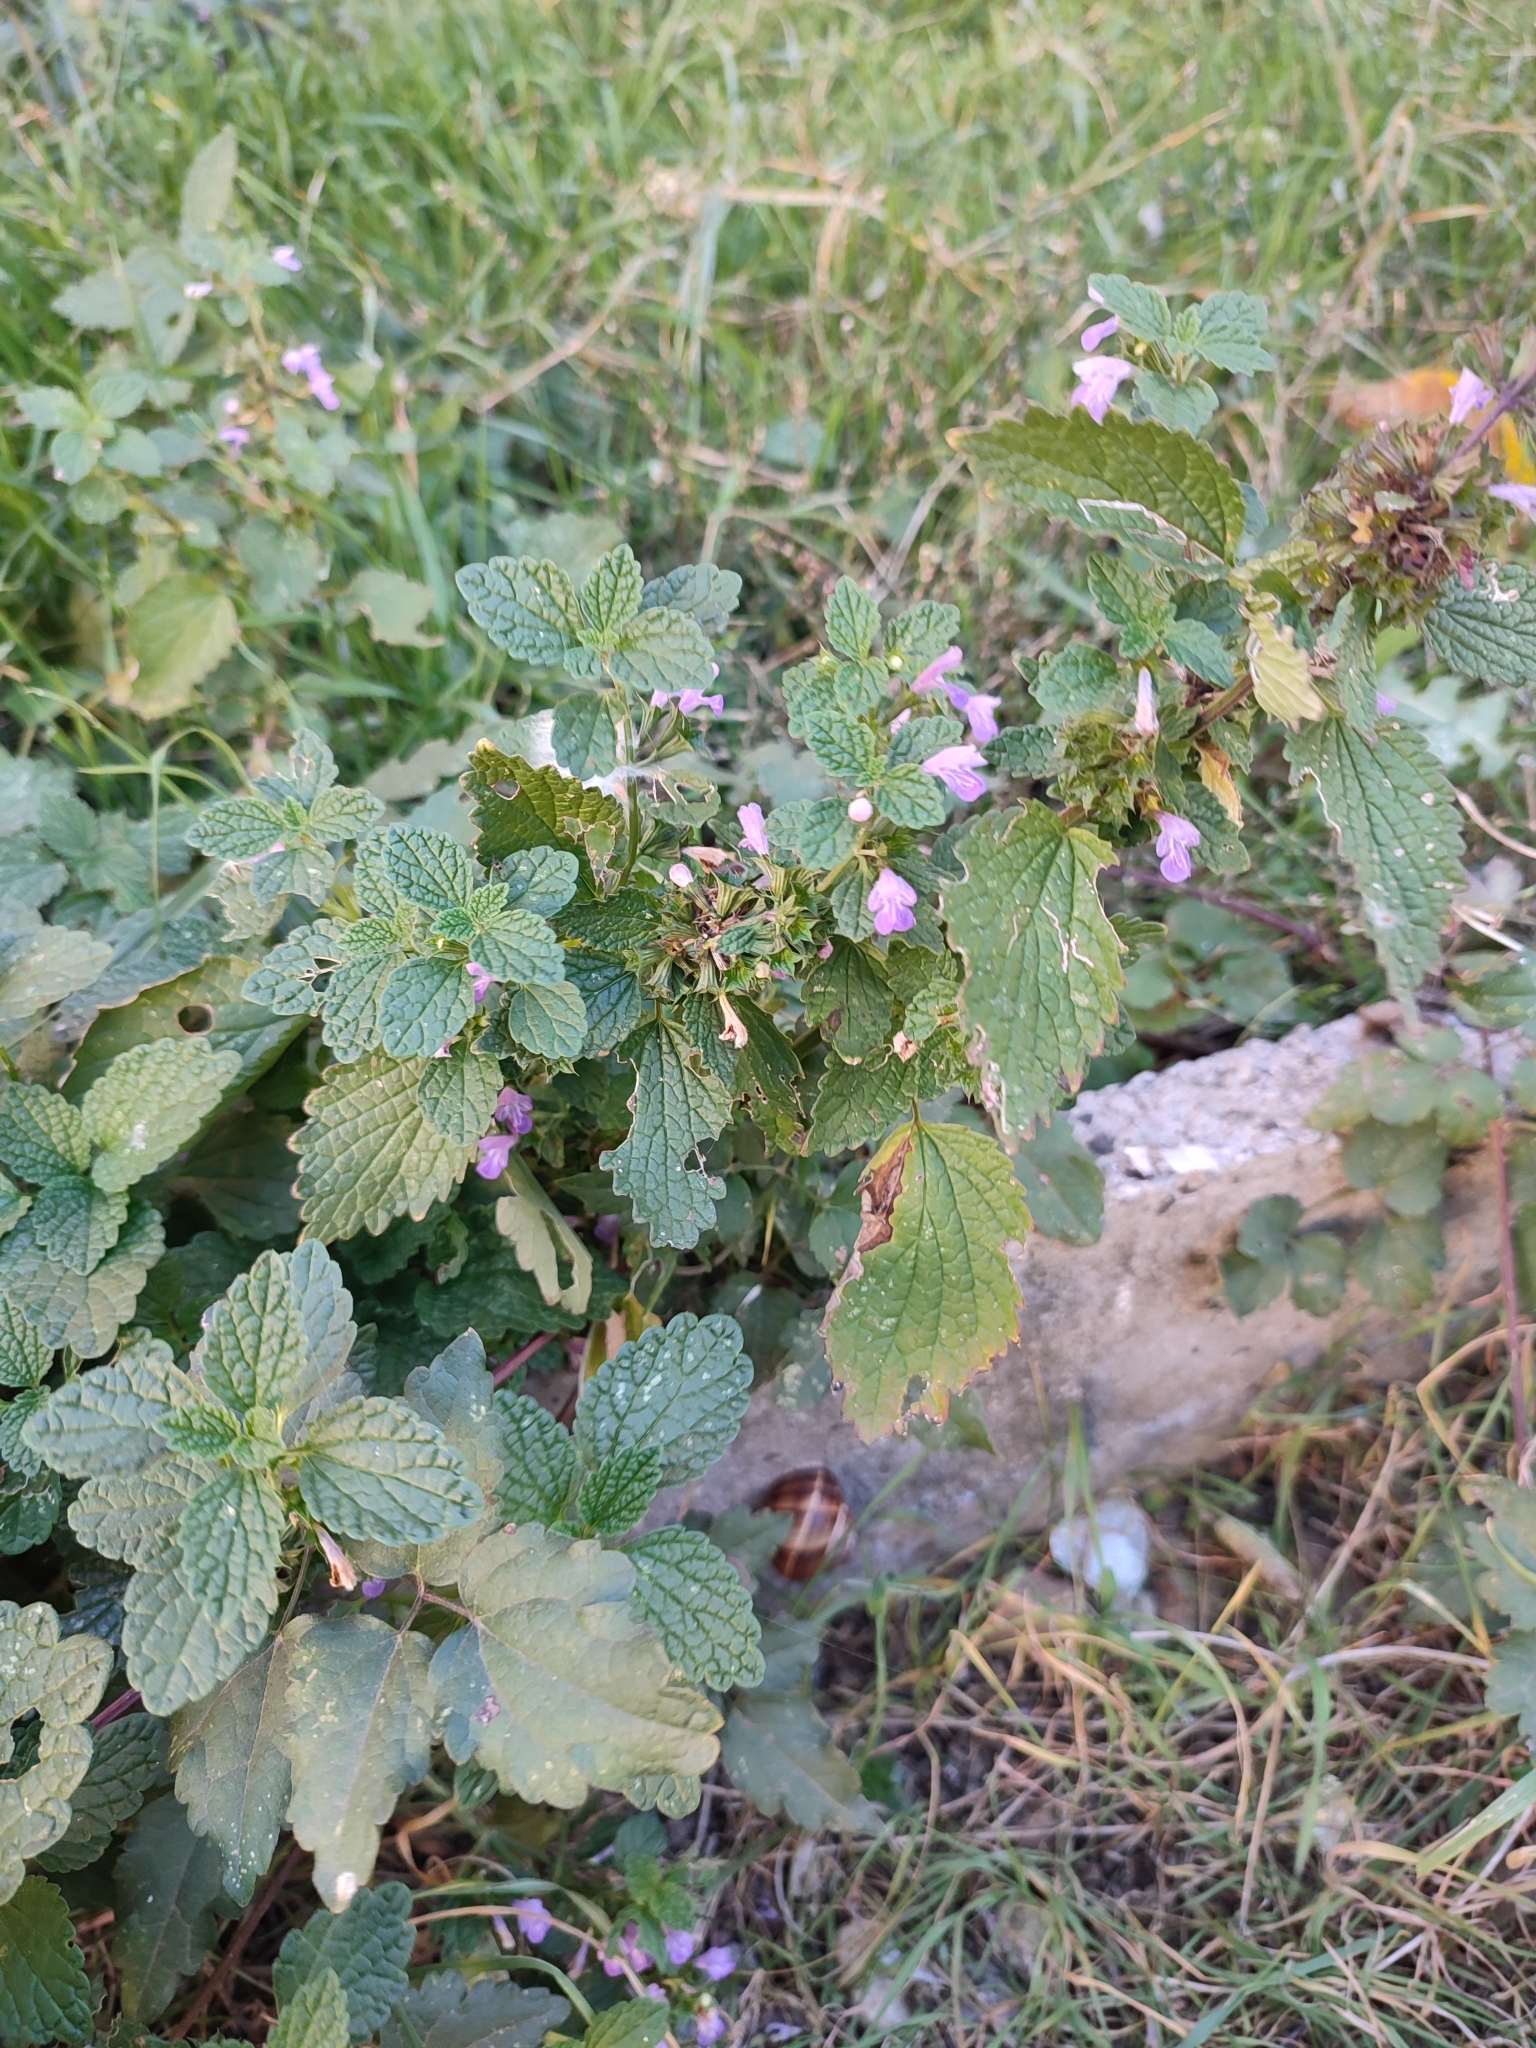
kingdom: Plantae
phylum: Tracheophyta
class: Magnoliopsida
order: Lamiales
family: Lamiaceae
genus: Ballota
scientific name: Ballota nigra
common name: Black horehound
